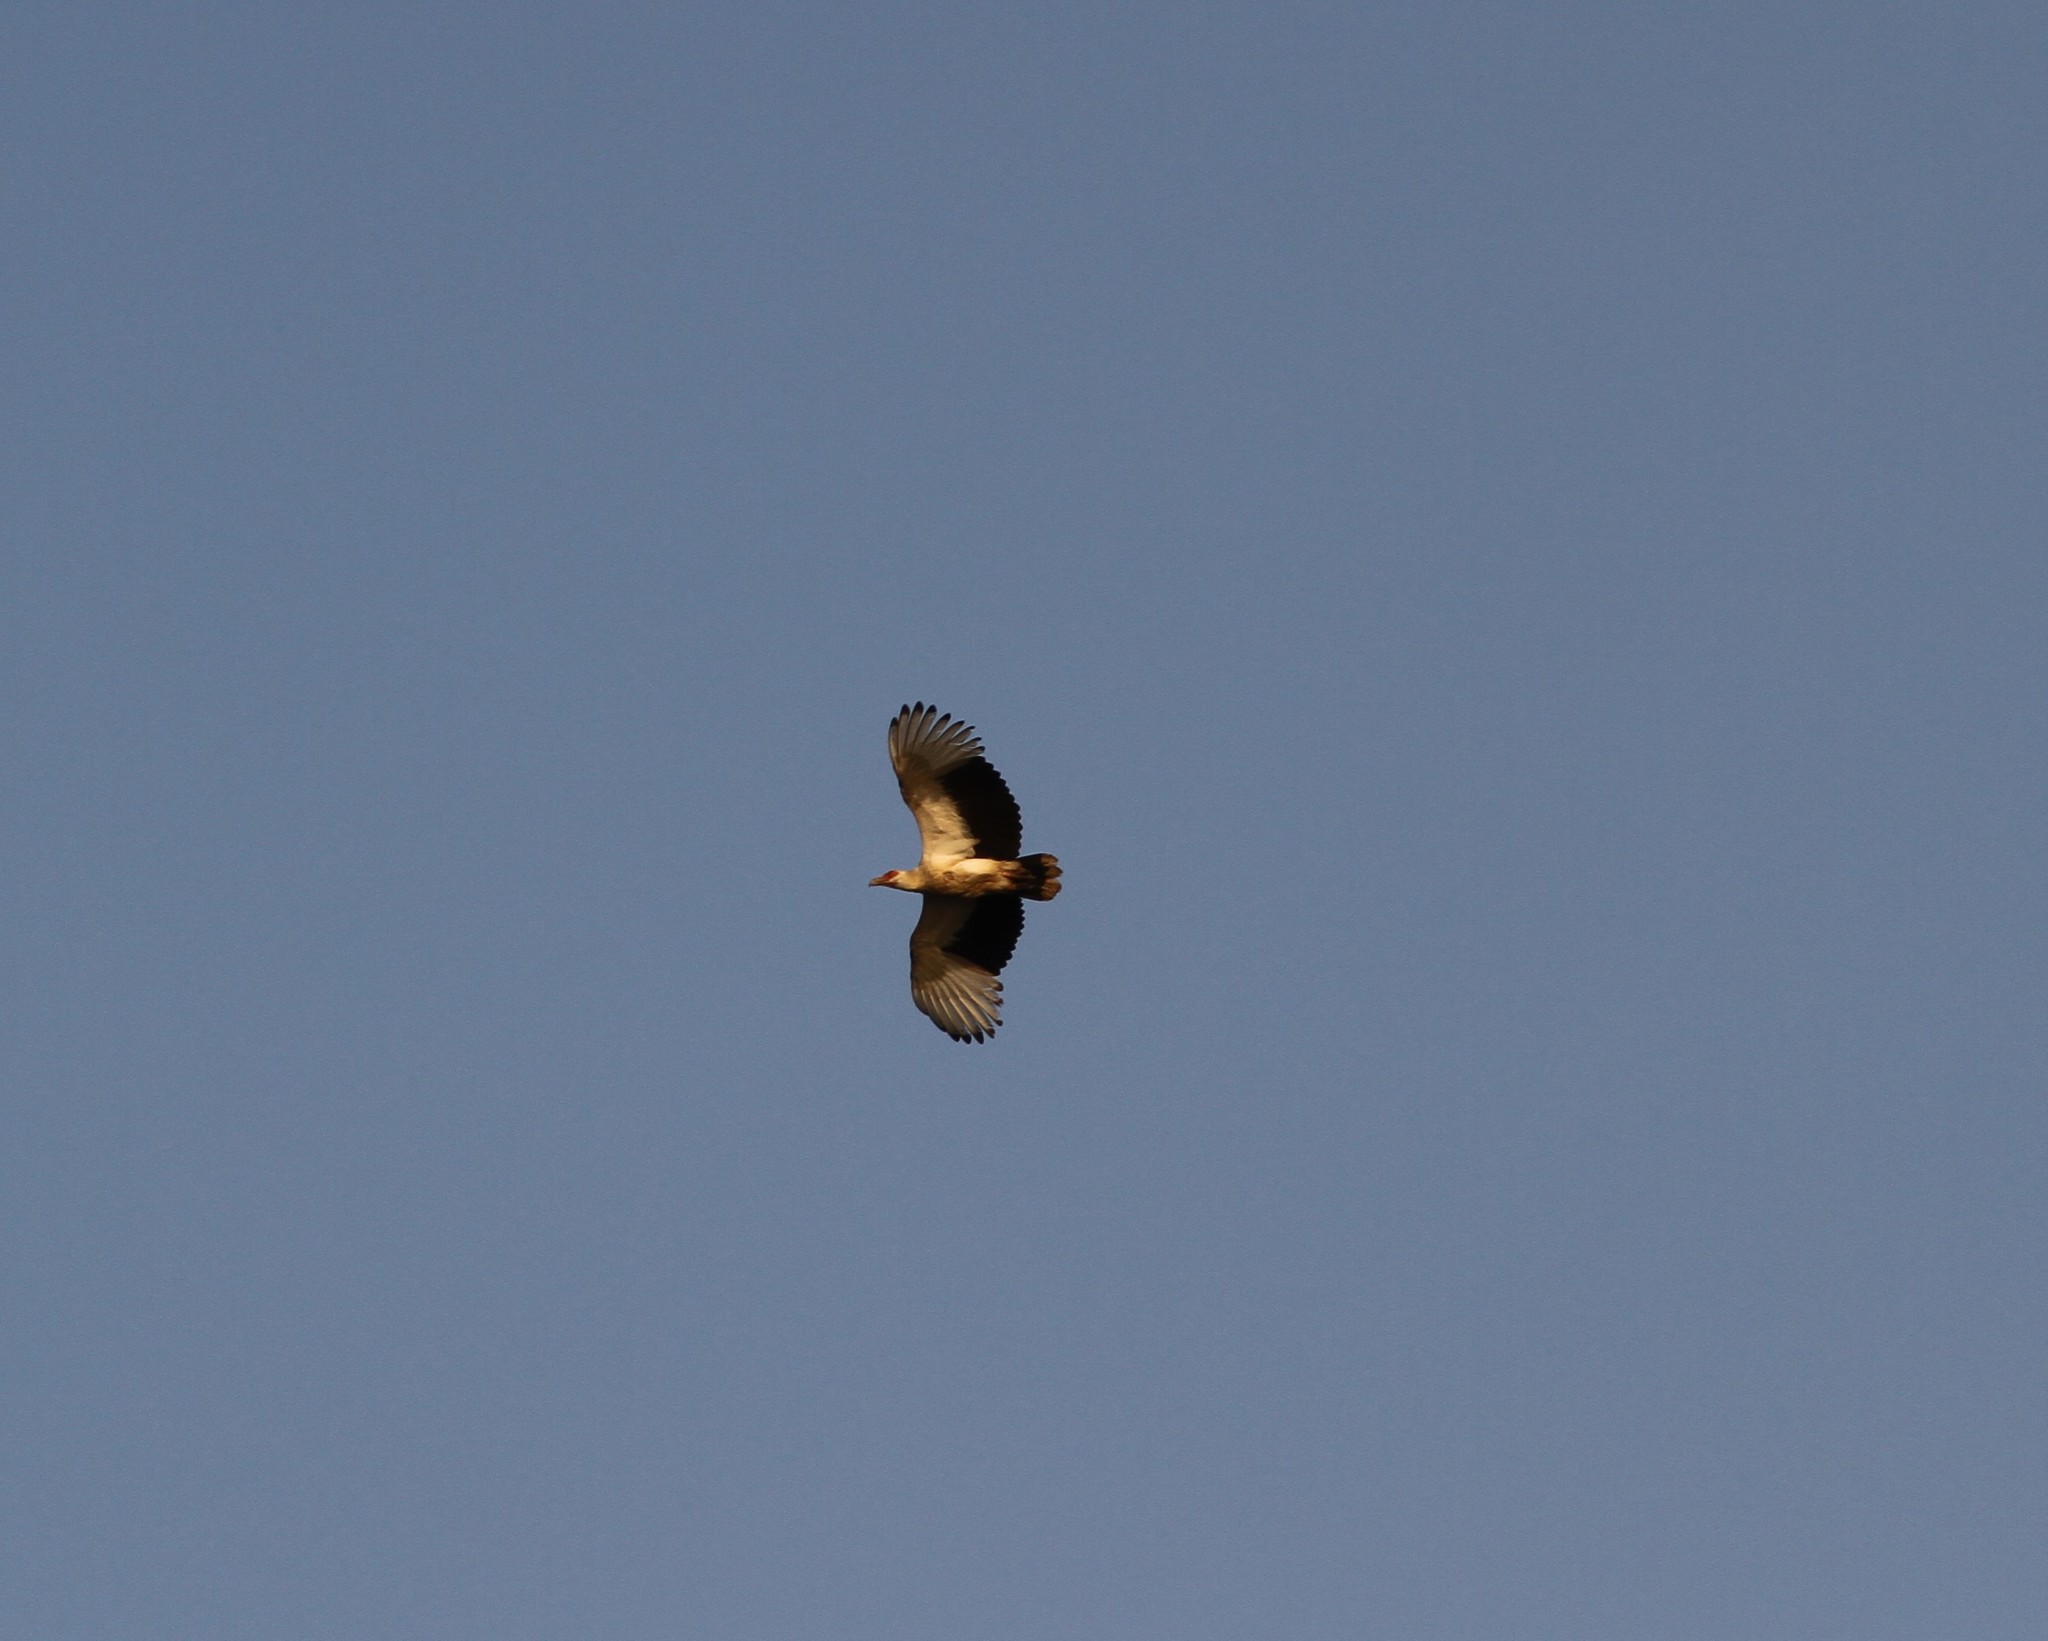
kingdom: Animalia
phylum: Chordata
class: Aves
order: Accipitriformes
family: Accipitridae
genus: Gypohierax
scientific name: Gypohierax angolensis
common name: Palm-nut vulture
